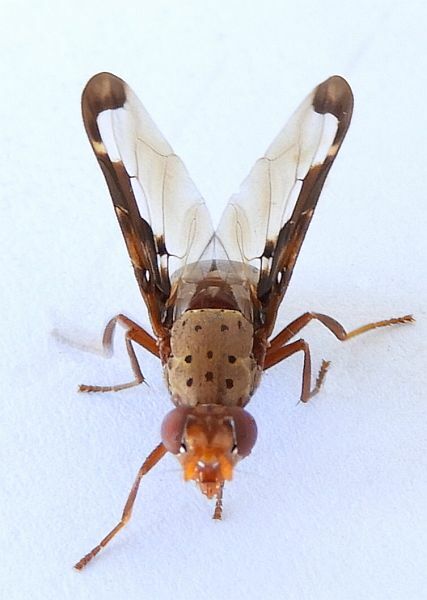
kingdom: Animalia
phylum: Arthropoda
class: Insecta
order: Diptera
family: Ulidiidae
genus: Diacrita
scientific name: Diacrita costalis
